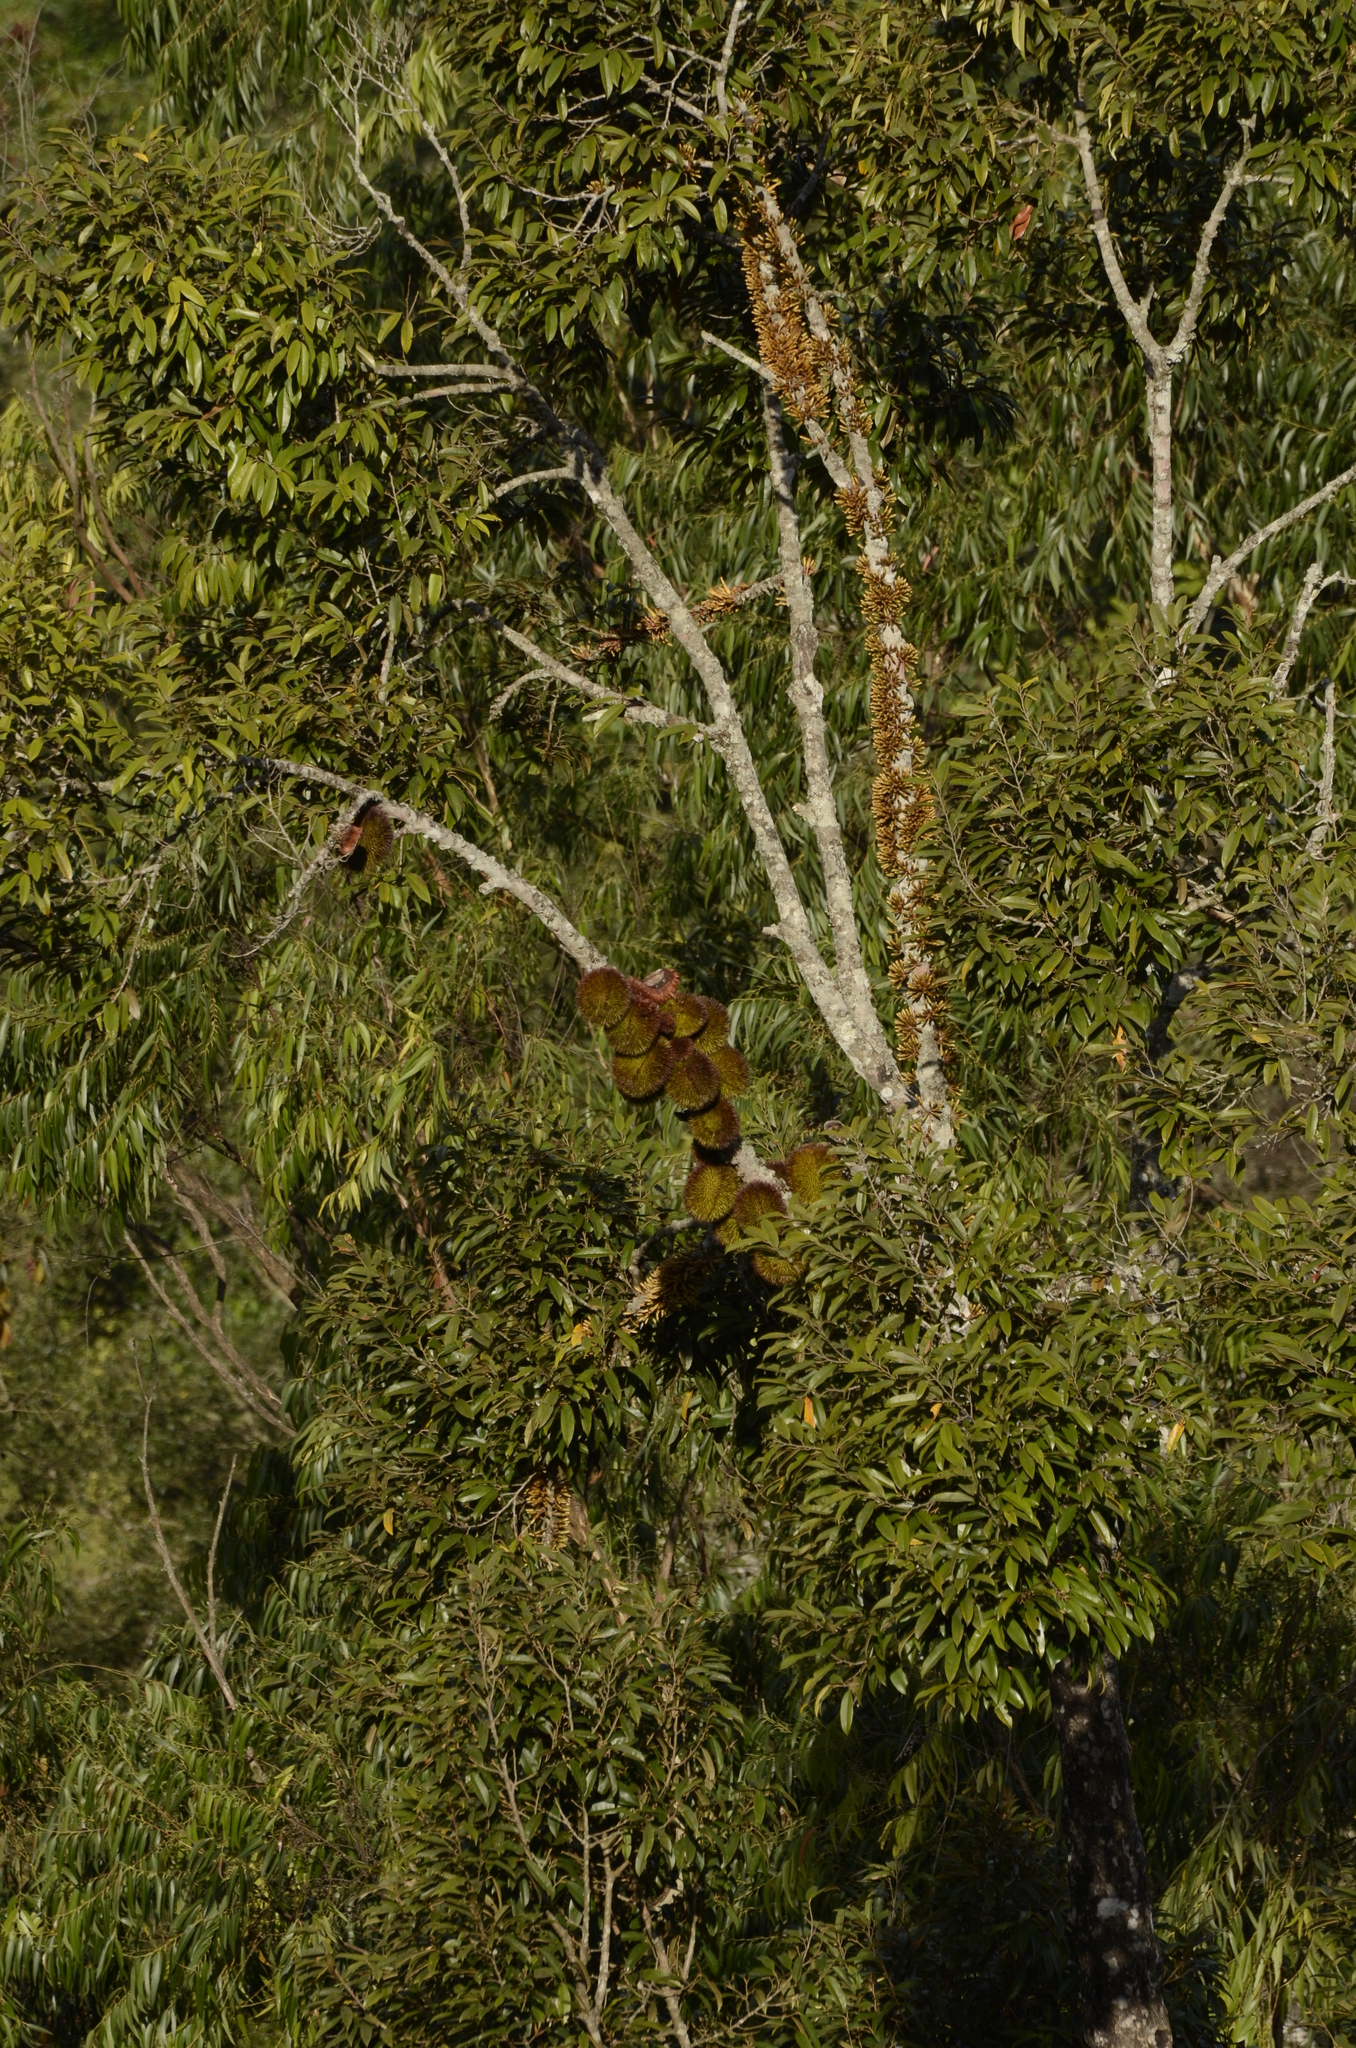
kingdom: Plantae
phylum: Tracheophyta
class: Magnoliopsida
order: Malvales
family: Malvaceae
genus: Cullenia
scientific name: Cullenia ceylanica
